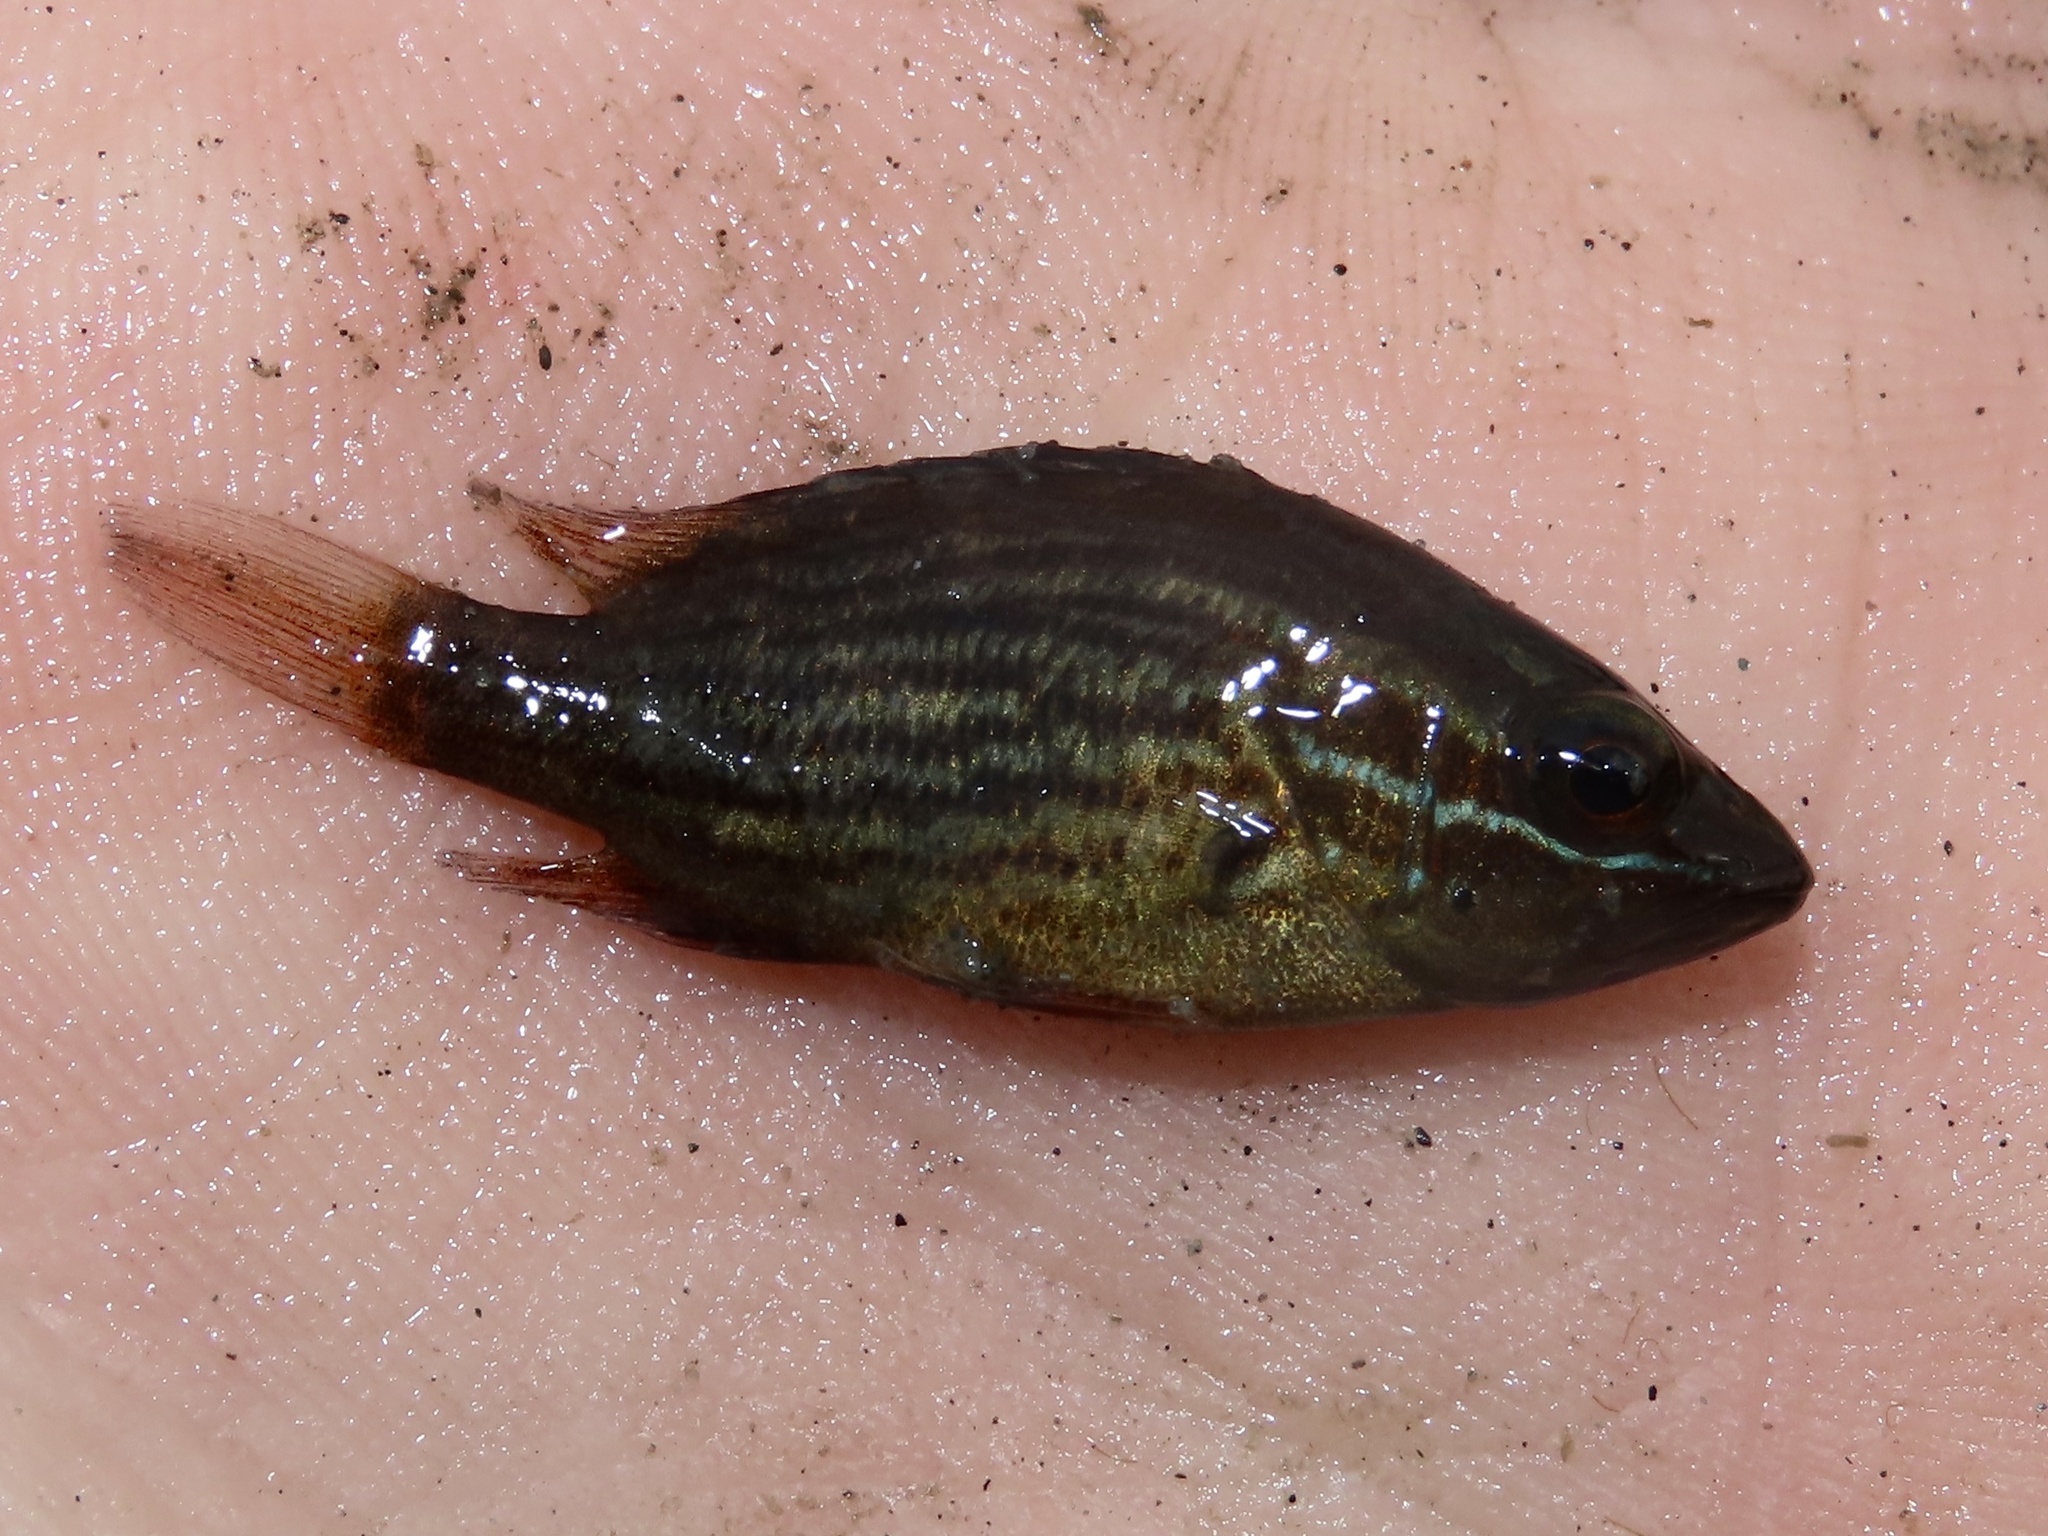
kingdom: Animalia
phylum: Chordata
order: Perciformes
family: Lutjanidae
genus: Lutjanus
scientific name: Lutjanus griseus
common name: Gray snapper
